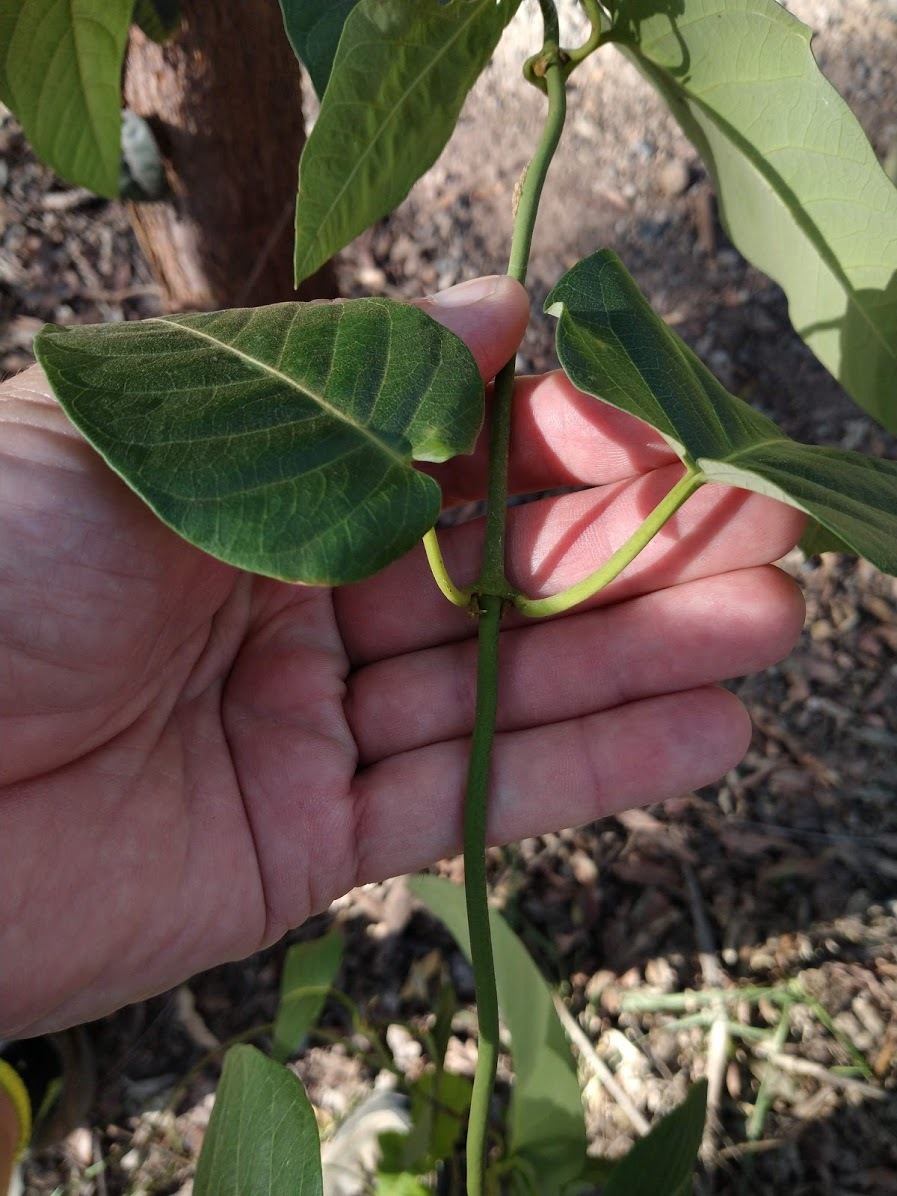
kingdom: Plantae
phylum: Tracheophyta
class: Magnoliopsida
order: Gentianales
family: Apocynaceae
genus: Parsonsia
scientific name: Parsonsia brisbanensis
